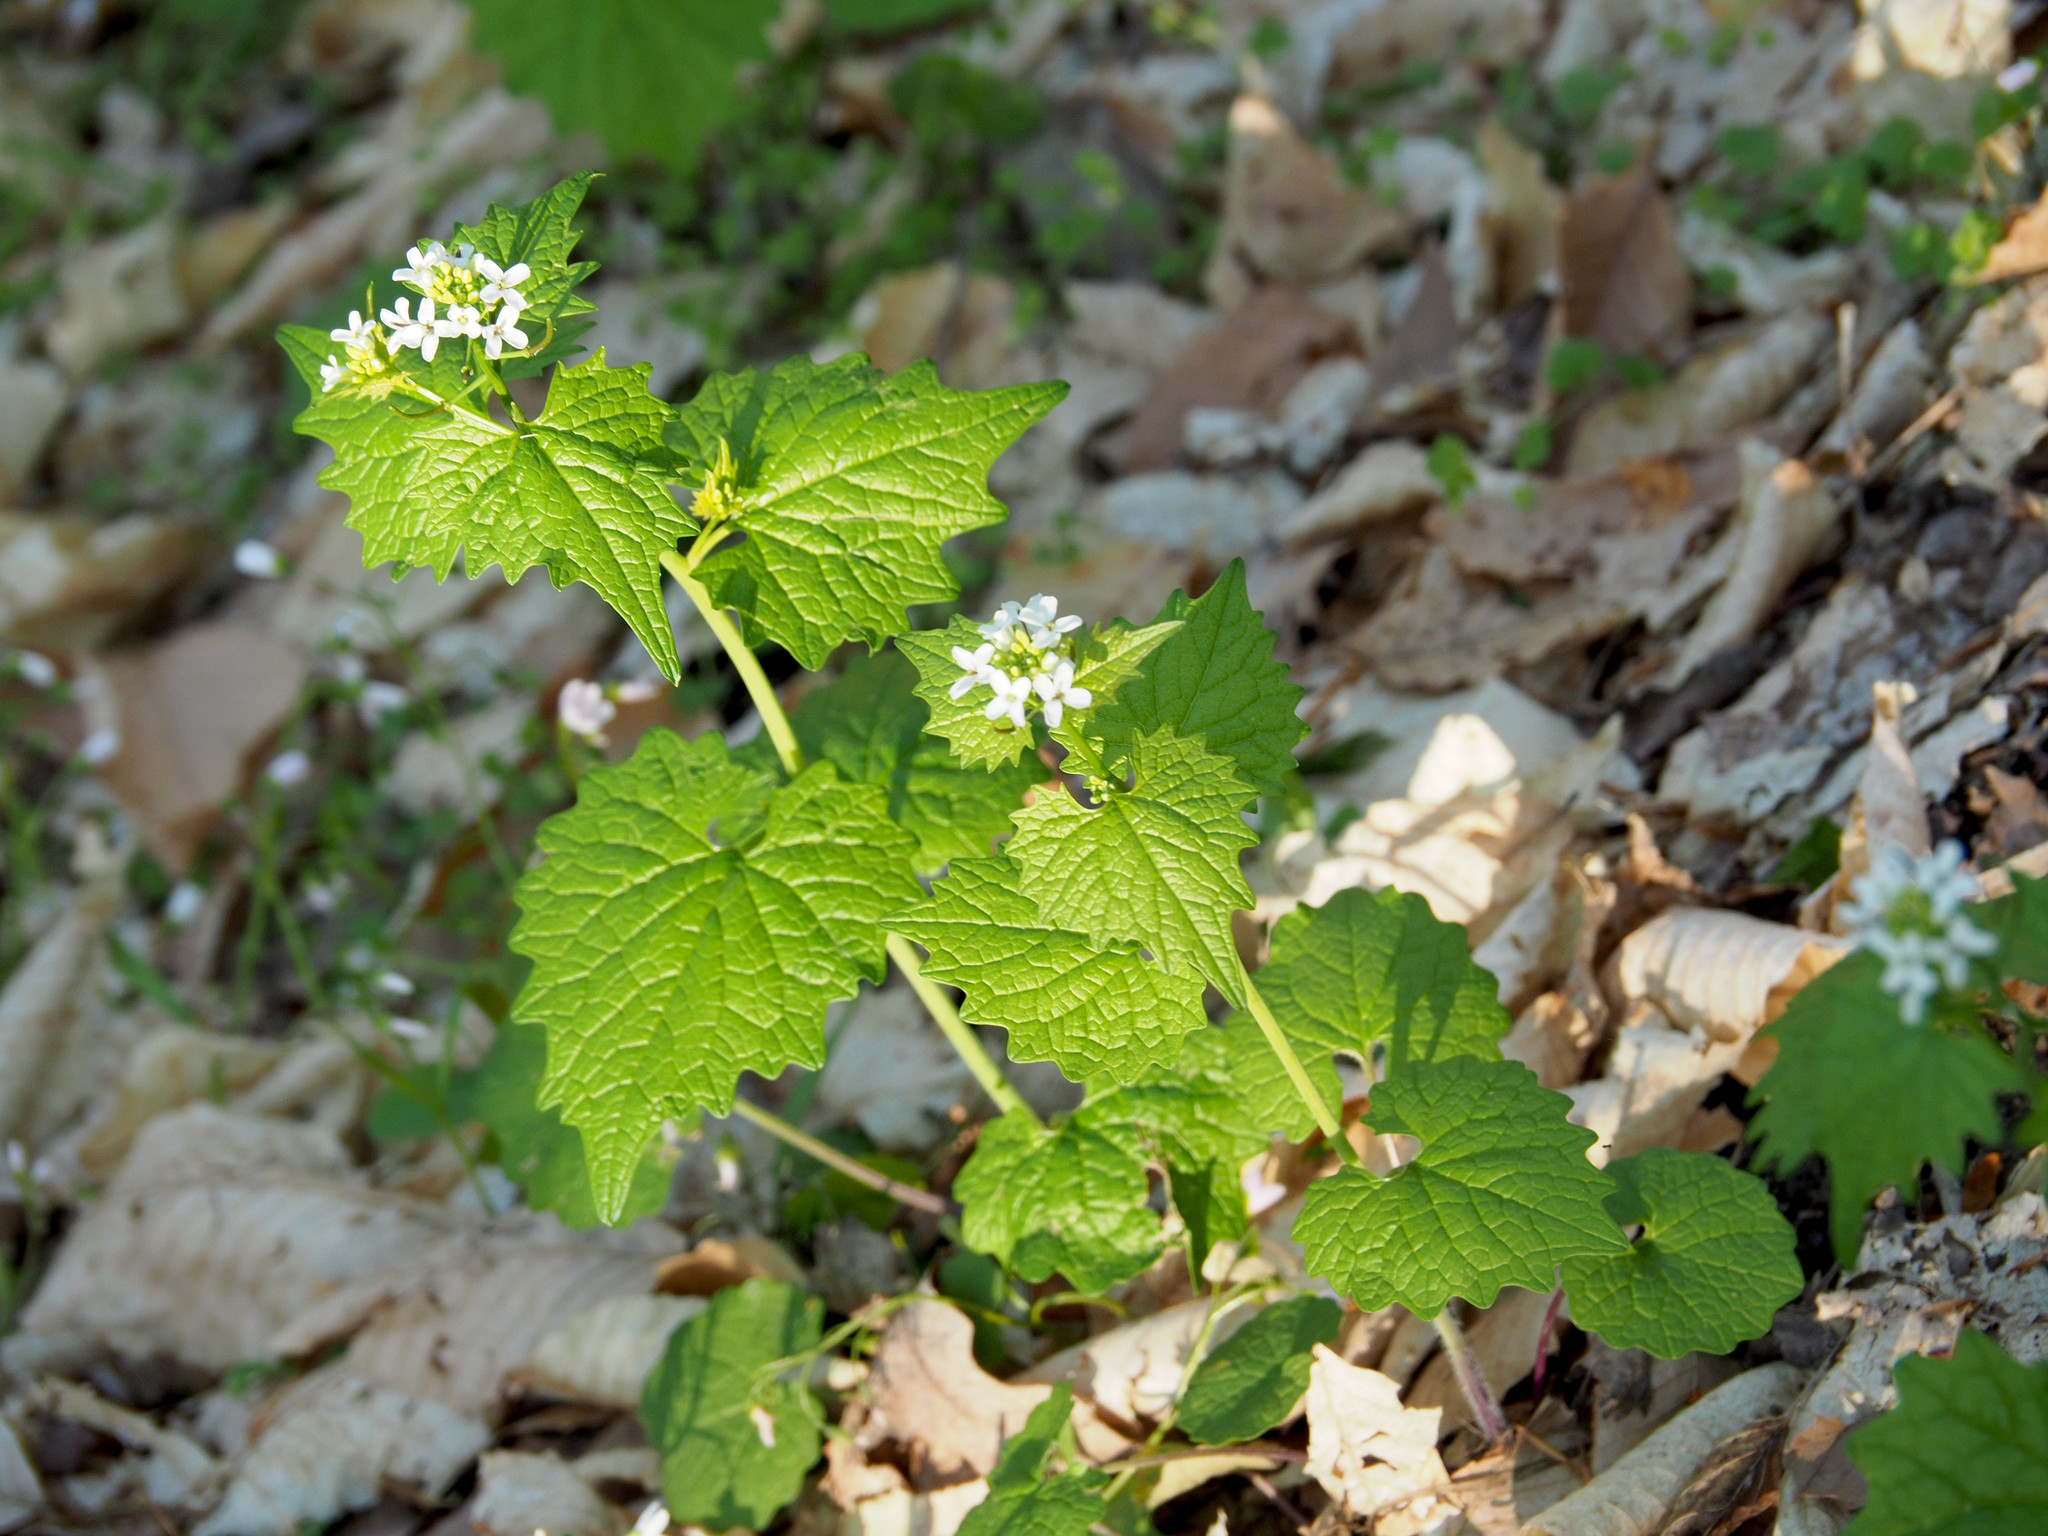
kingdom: Plantae
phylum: Tracheophyta
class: Magnoliopsida
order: Brassicales
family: Brassicaceae
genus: Alliaria
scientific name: Alliaria petiolata
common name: Garlic mustard
